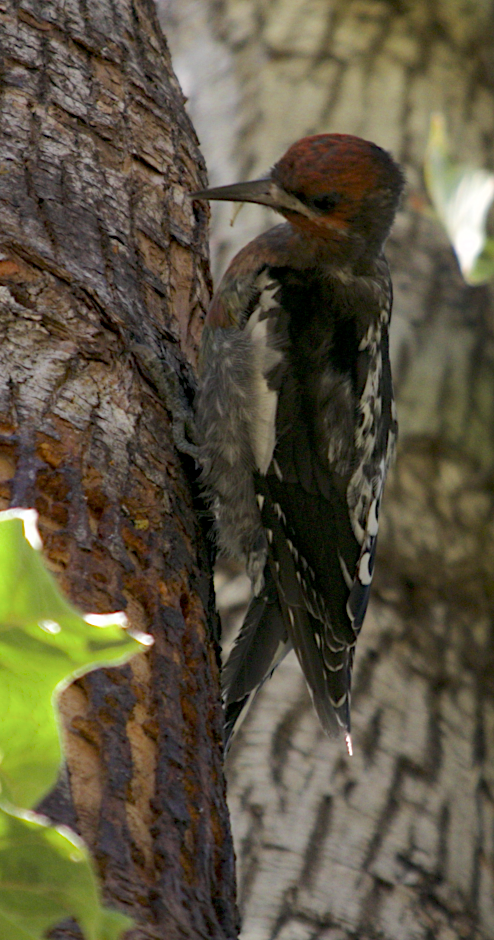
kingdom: Animalia
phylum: Chordata
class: Aves
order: Piciformes
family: Picidae
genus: Sphyrapicus
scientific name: Sphyrapicus ruber
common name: Red-breasted sapsucker
